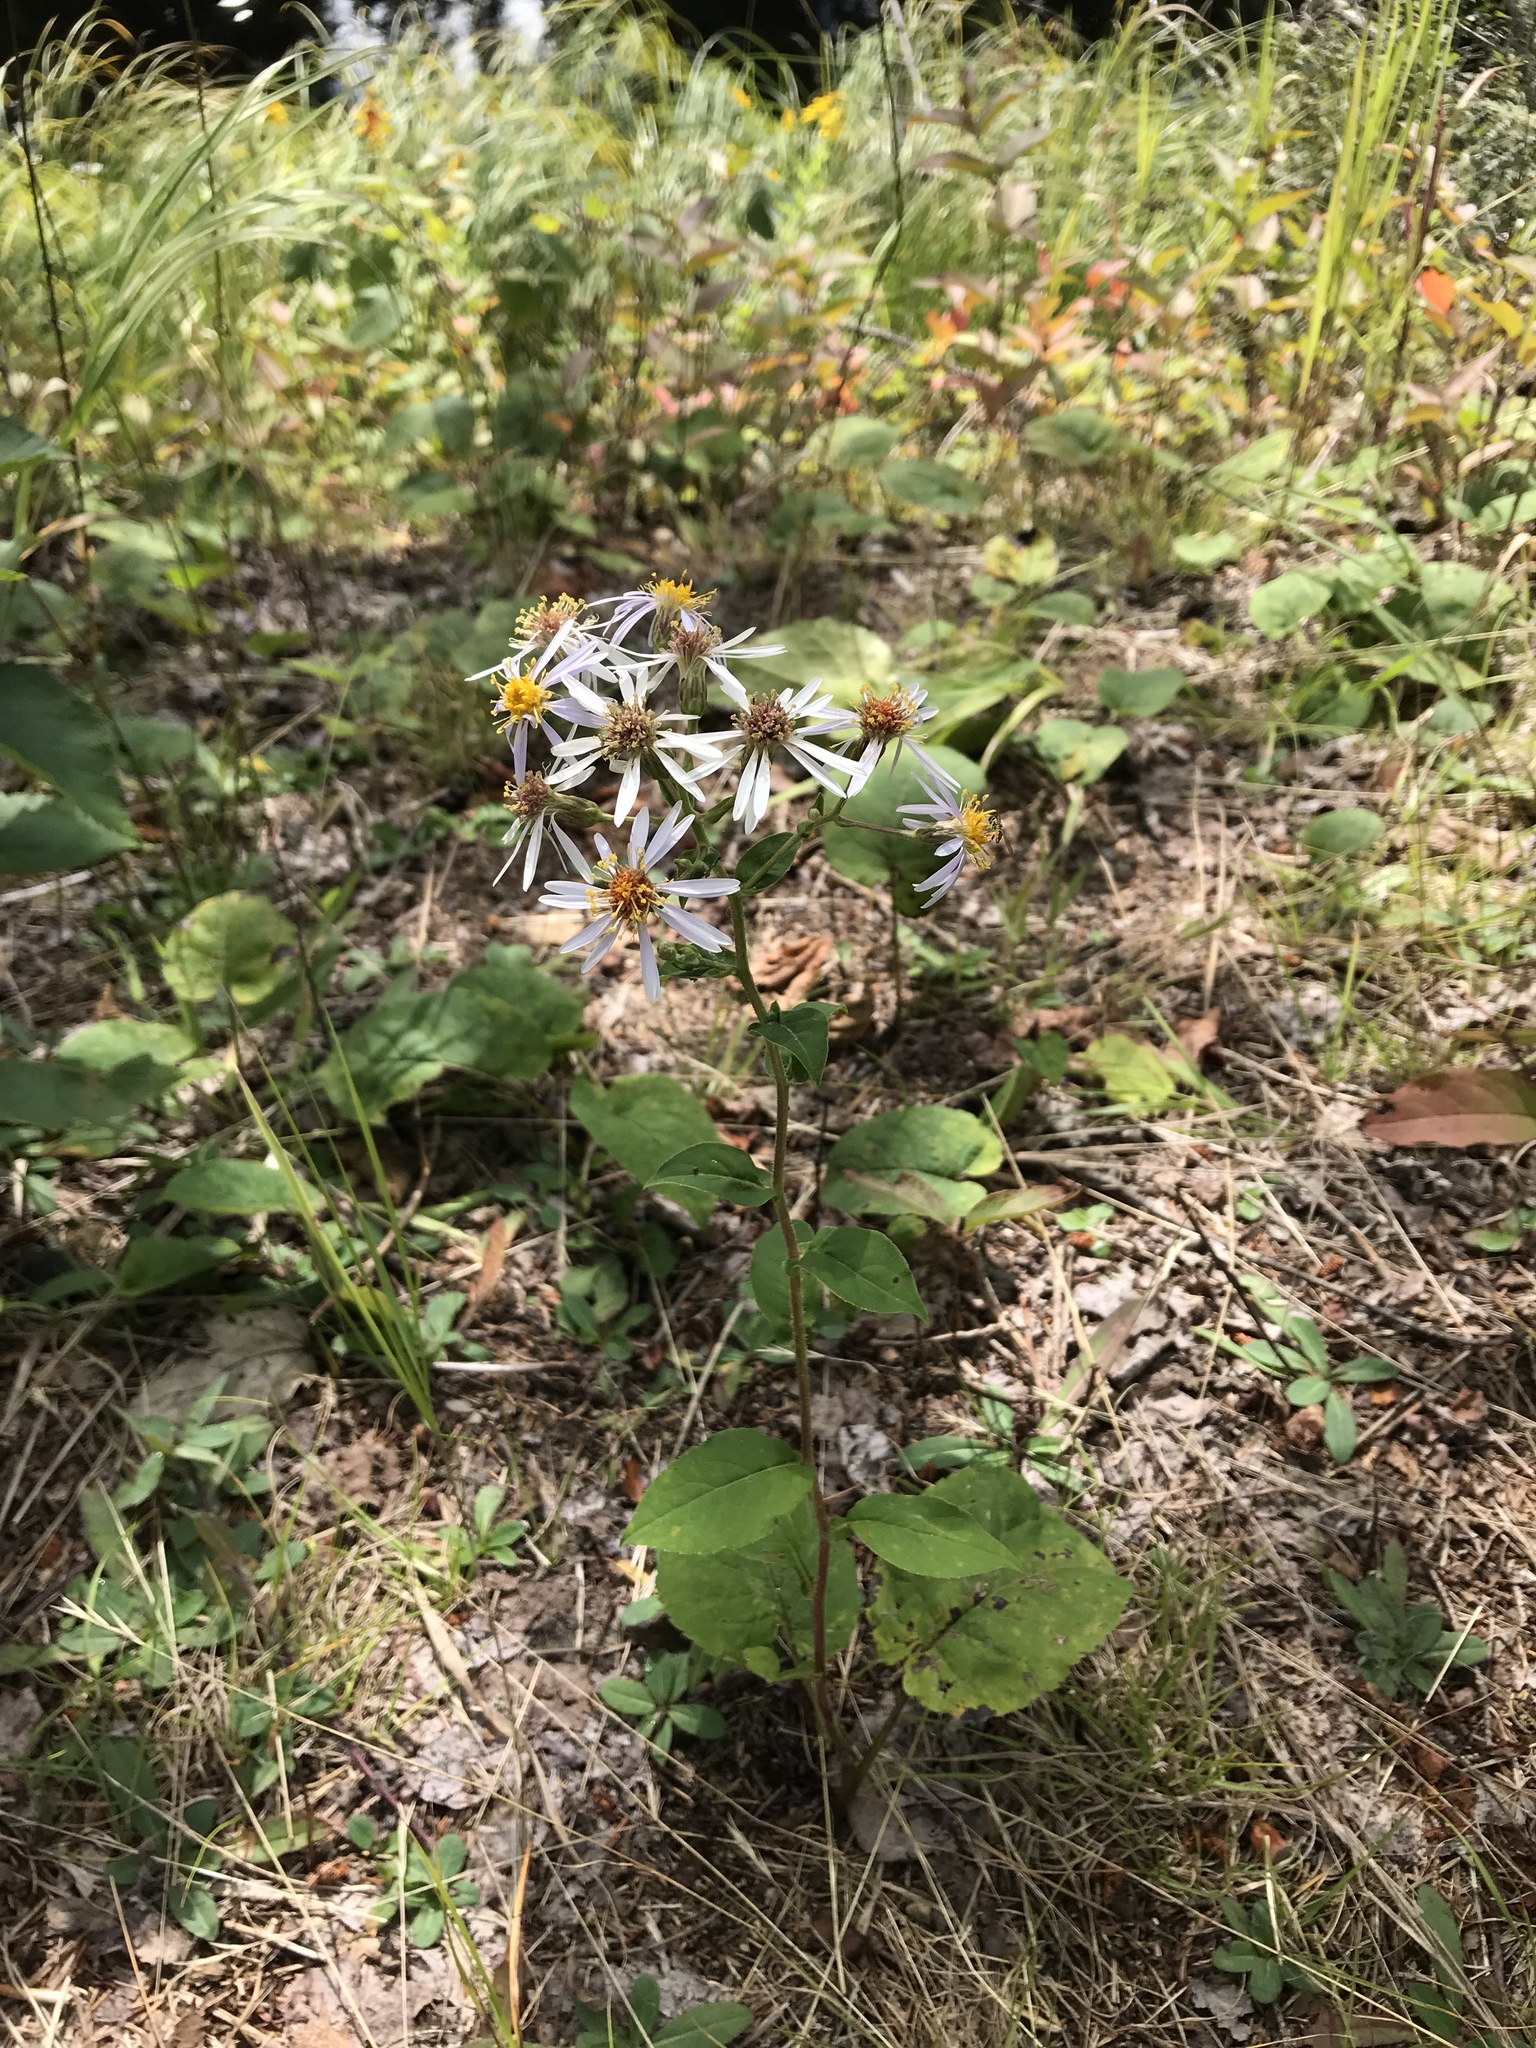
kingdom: Plantae
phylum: Tracheophyta
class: Magnoliopsida
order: Asterales
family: Asteraceae
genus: Eurybia
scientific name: Eurybia macrophylla
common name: Big-leaved aster
